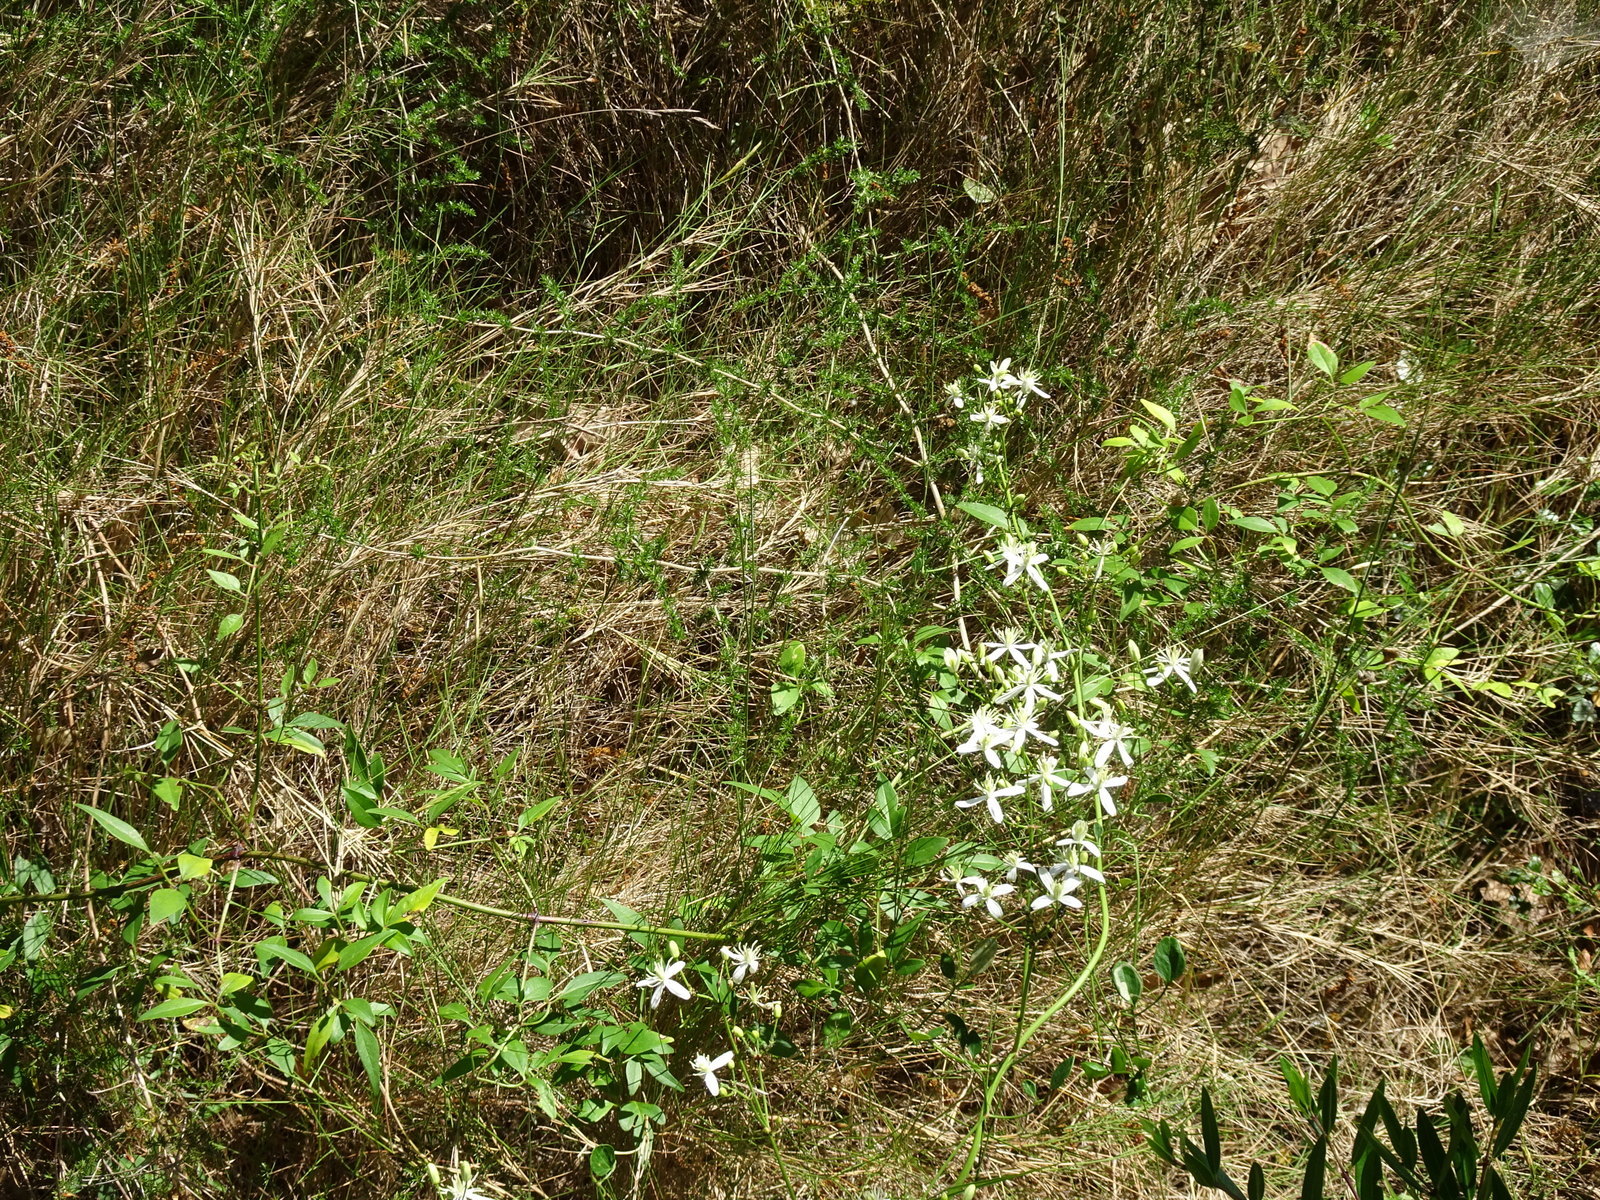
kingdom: Plantae
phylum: Tracheophyta
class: Magnoliopsida
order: Ranunculales
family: Ranunculaceae
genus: Clematis
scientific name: Clematis flammula
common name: Virgin's-bower
